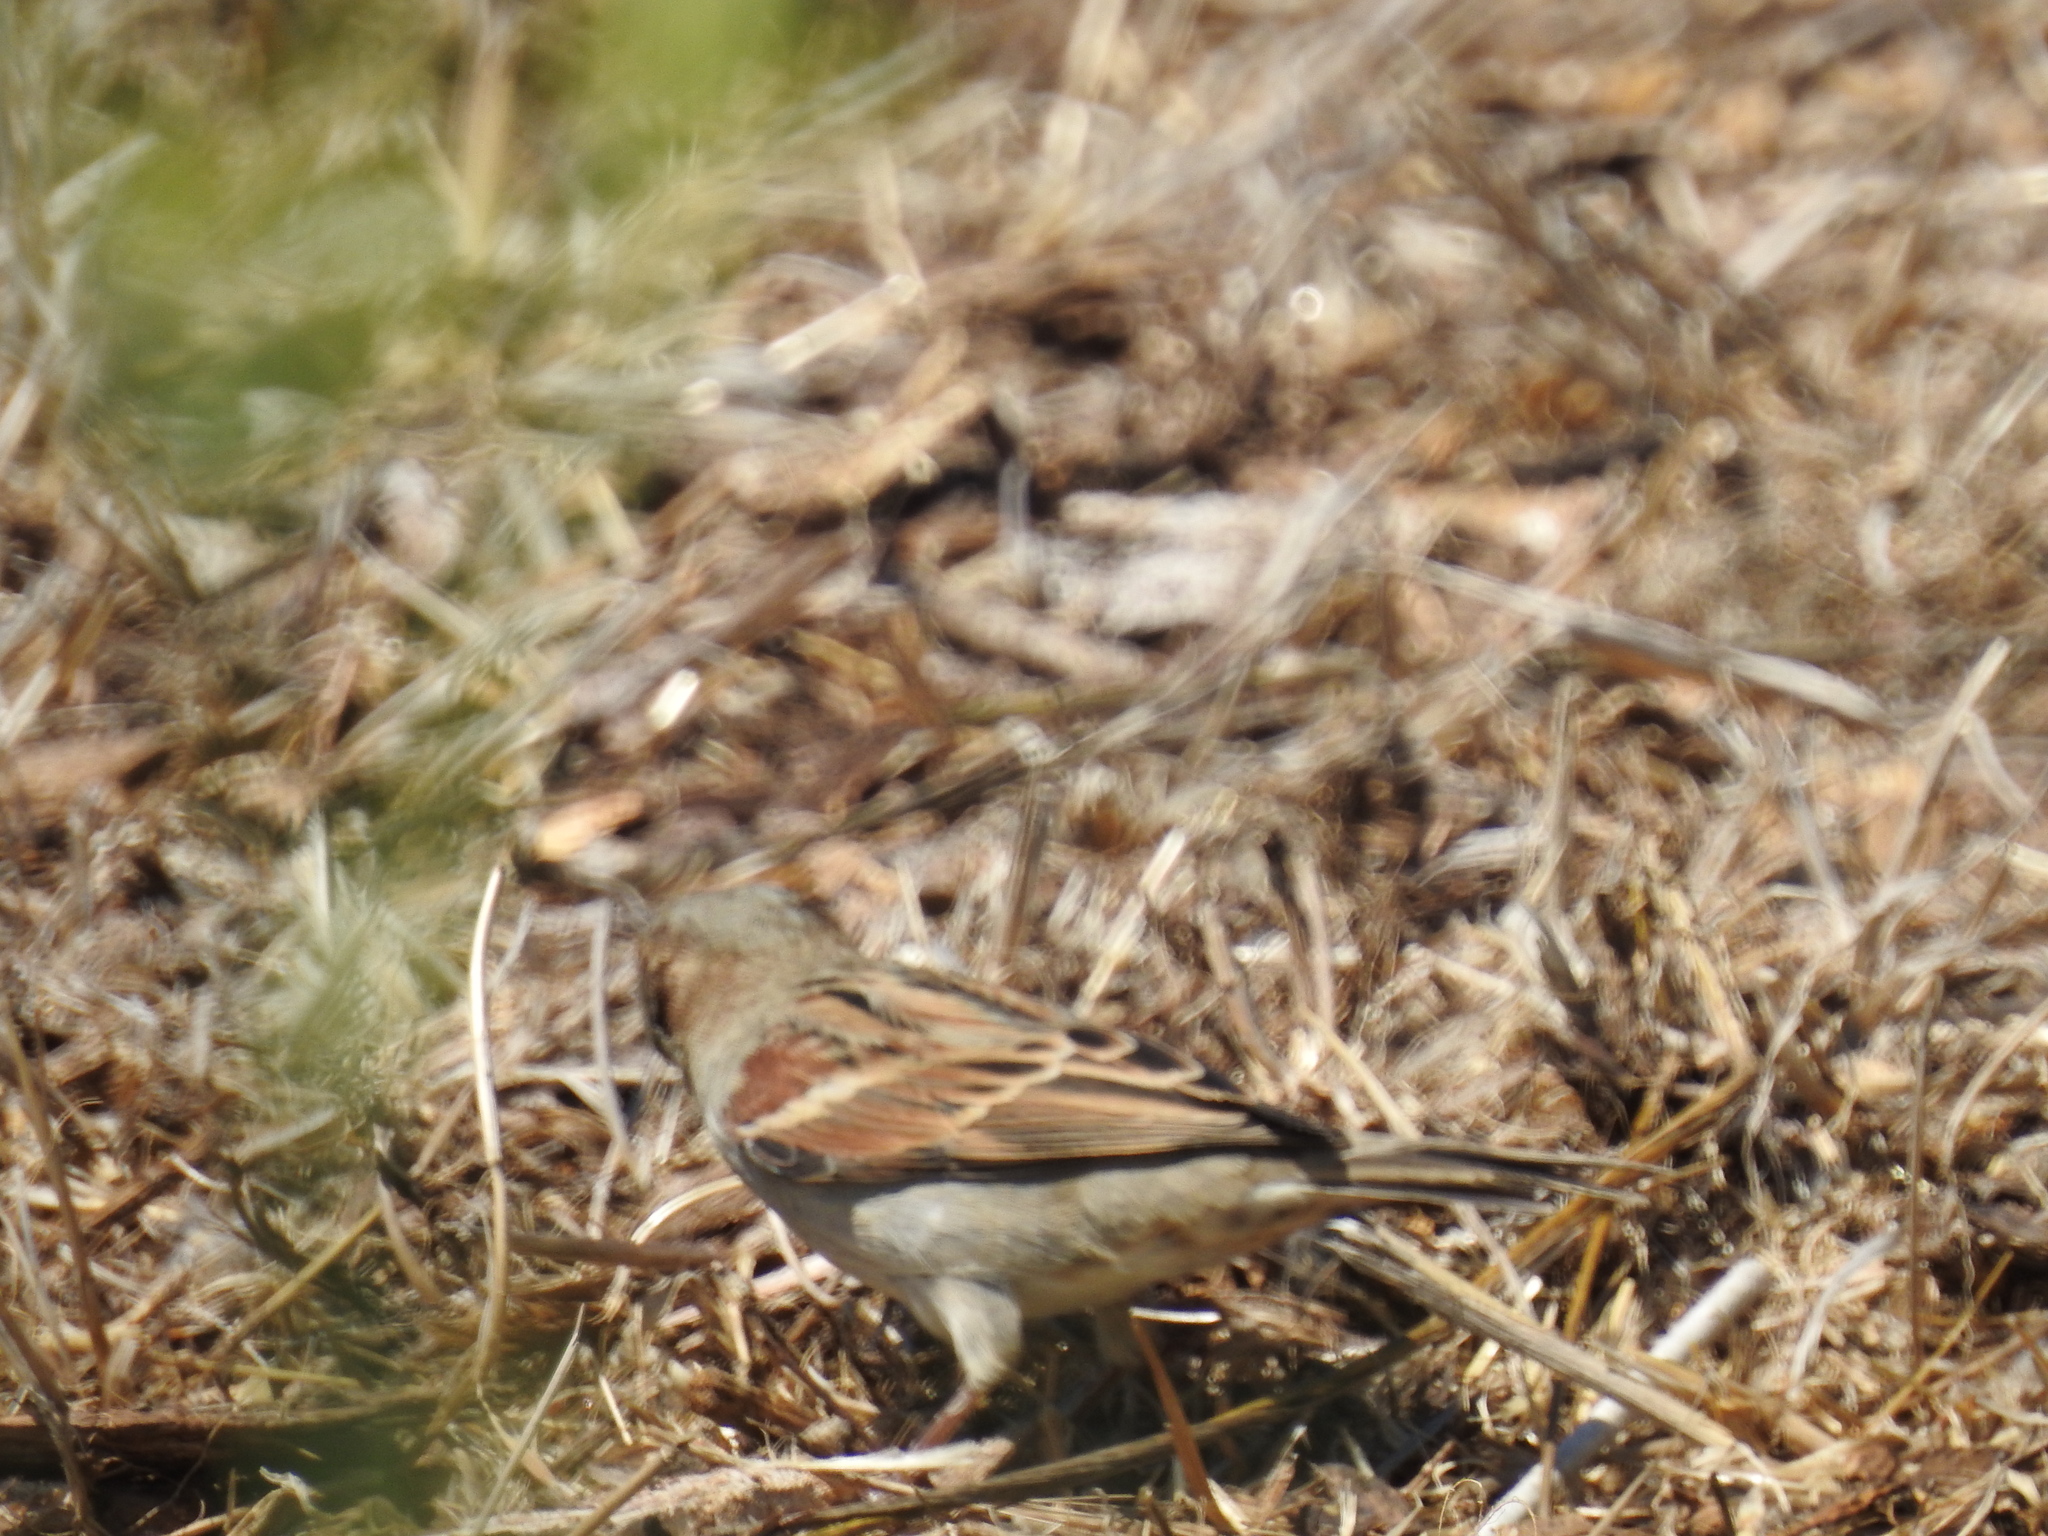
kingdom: Animalia
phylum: Chordata
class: Aves
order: Passeriformes
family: Passeridae
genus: Passer
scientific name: Passer domesticus
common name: House sparrow
